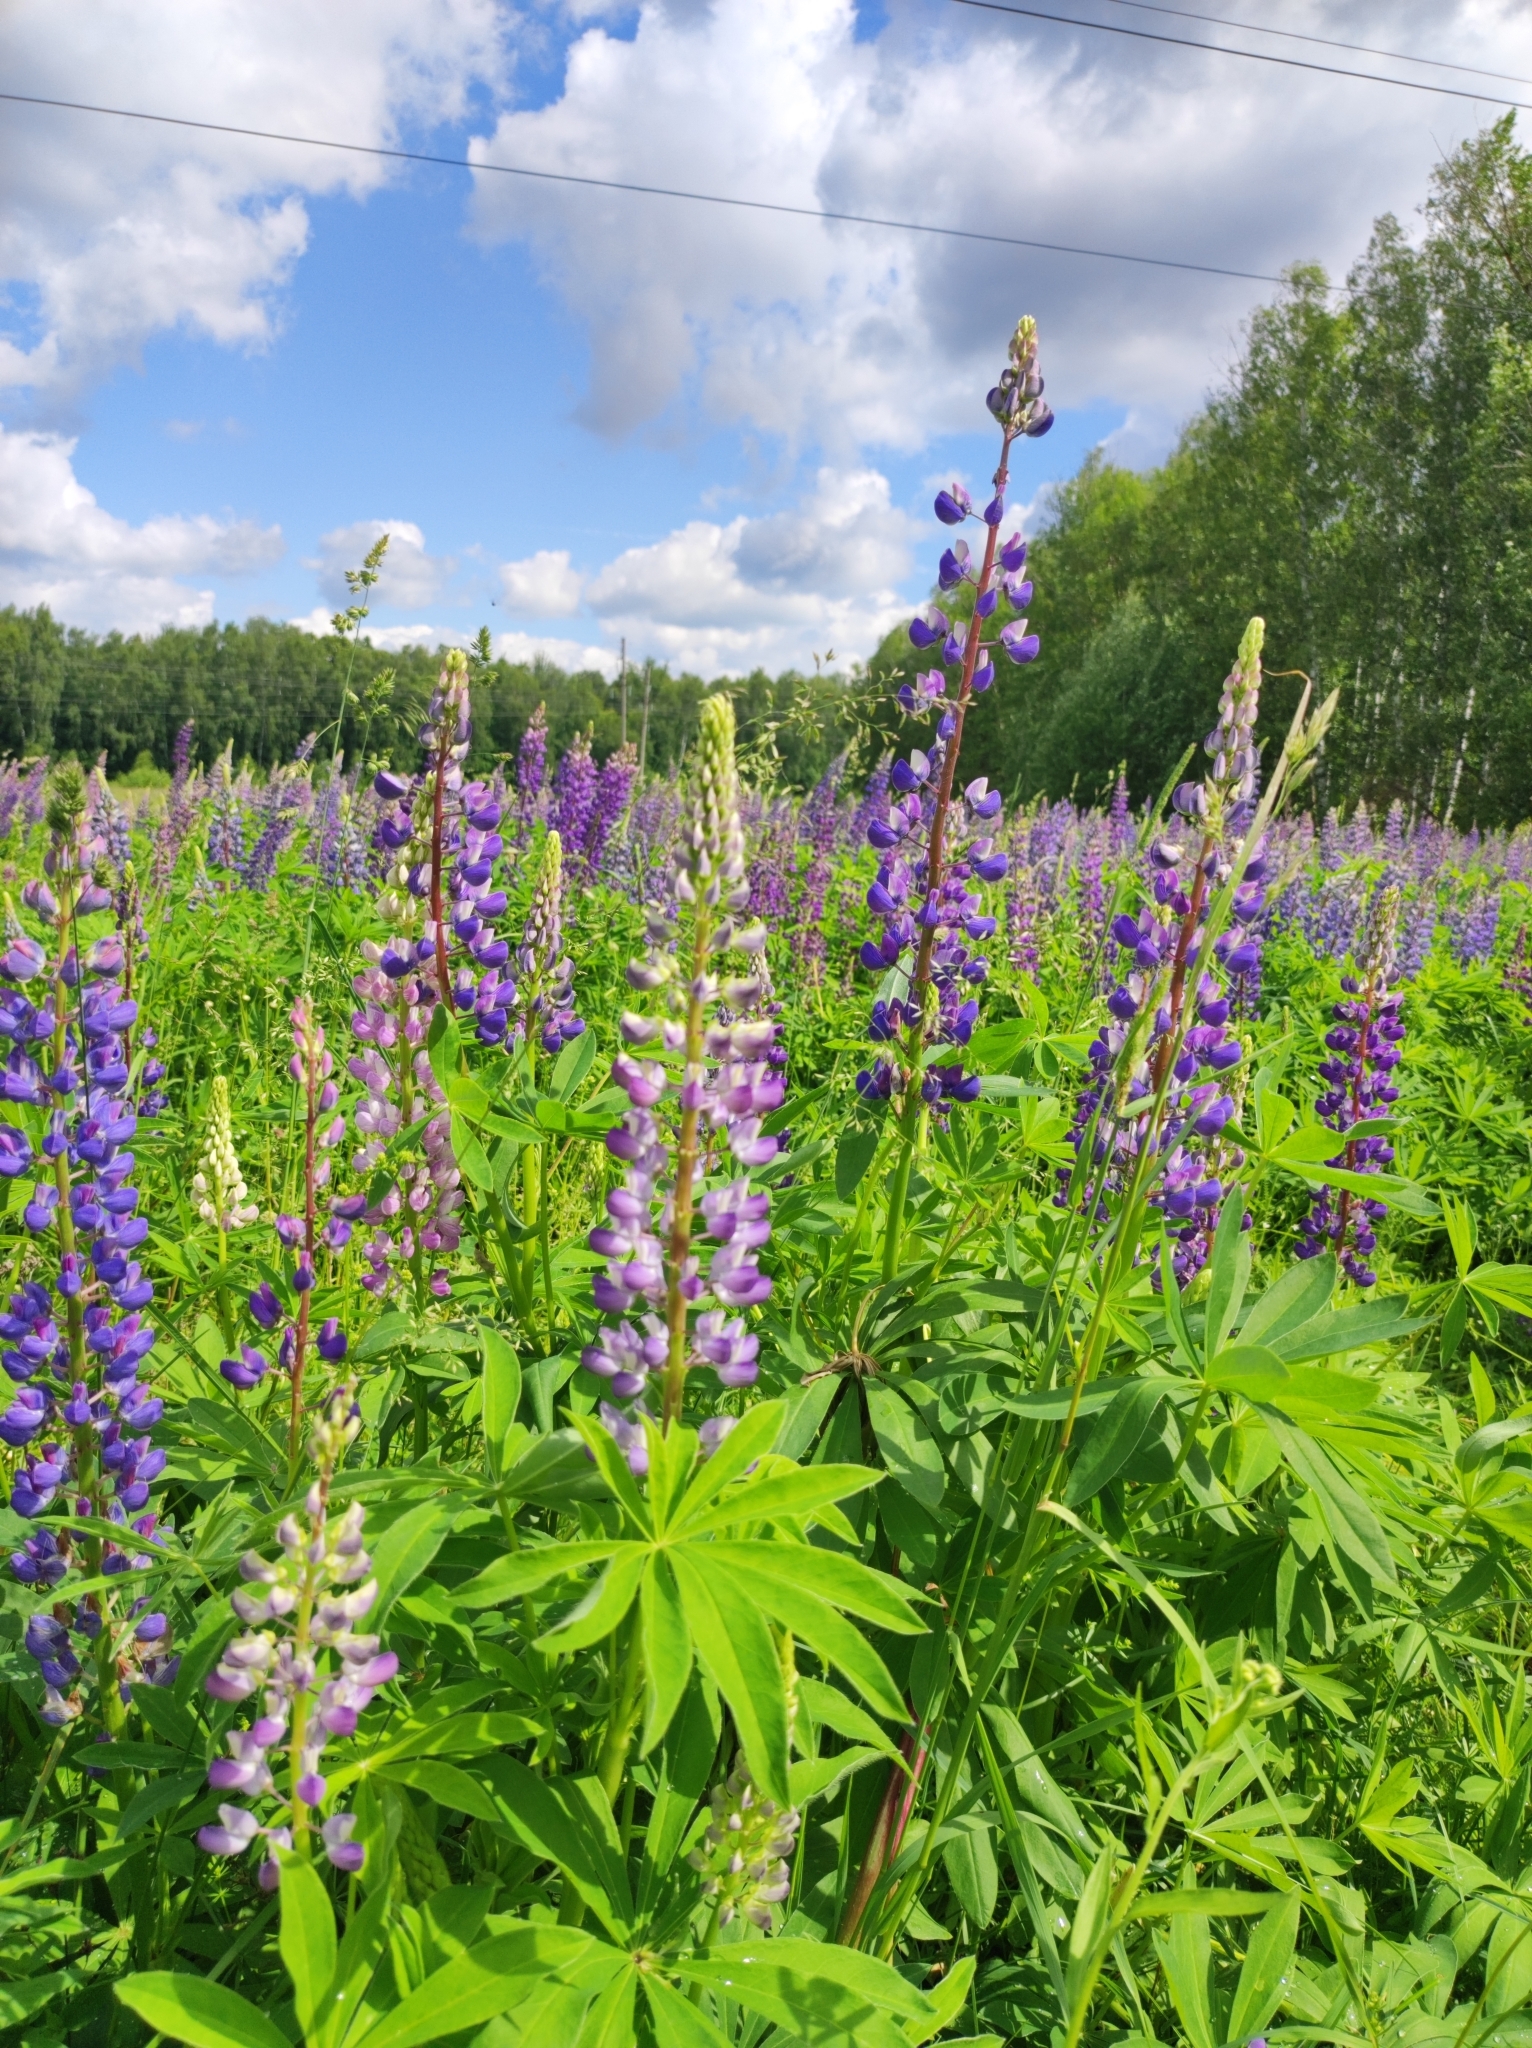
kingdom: Plantae
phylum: Tracheophyta
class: Magnoliopsida
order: Fabales
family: Fabaceae
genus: Lupinus
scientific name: Lupinus polyphyllus
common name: Garden lupin
